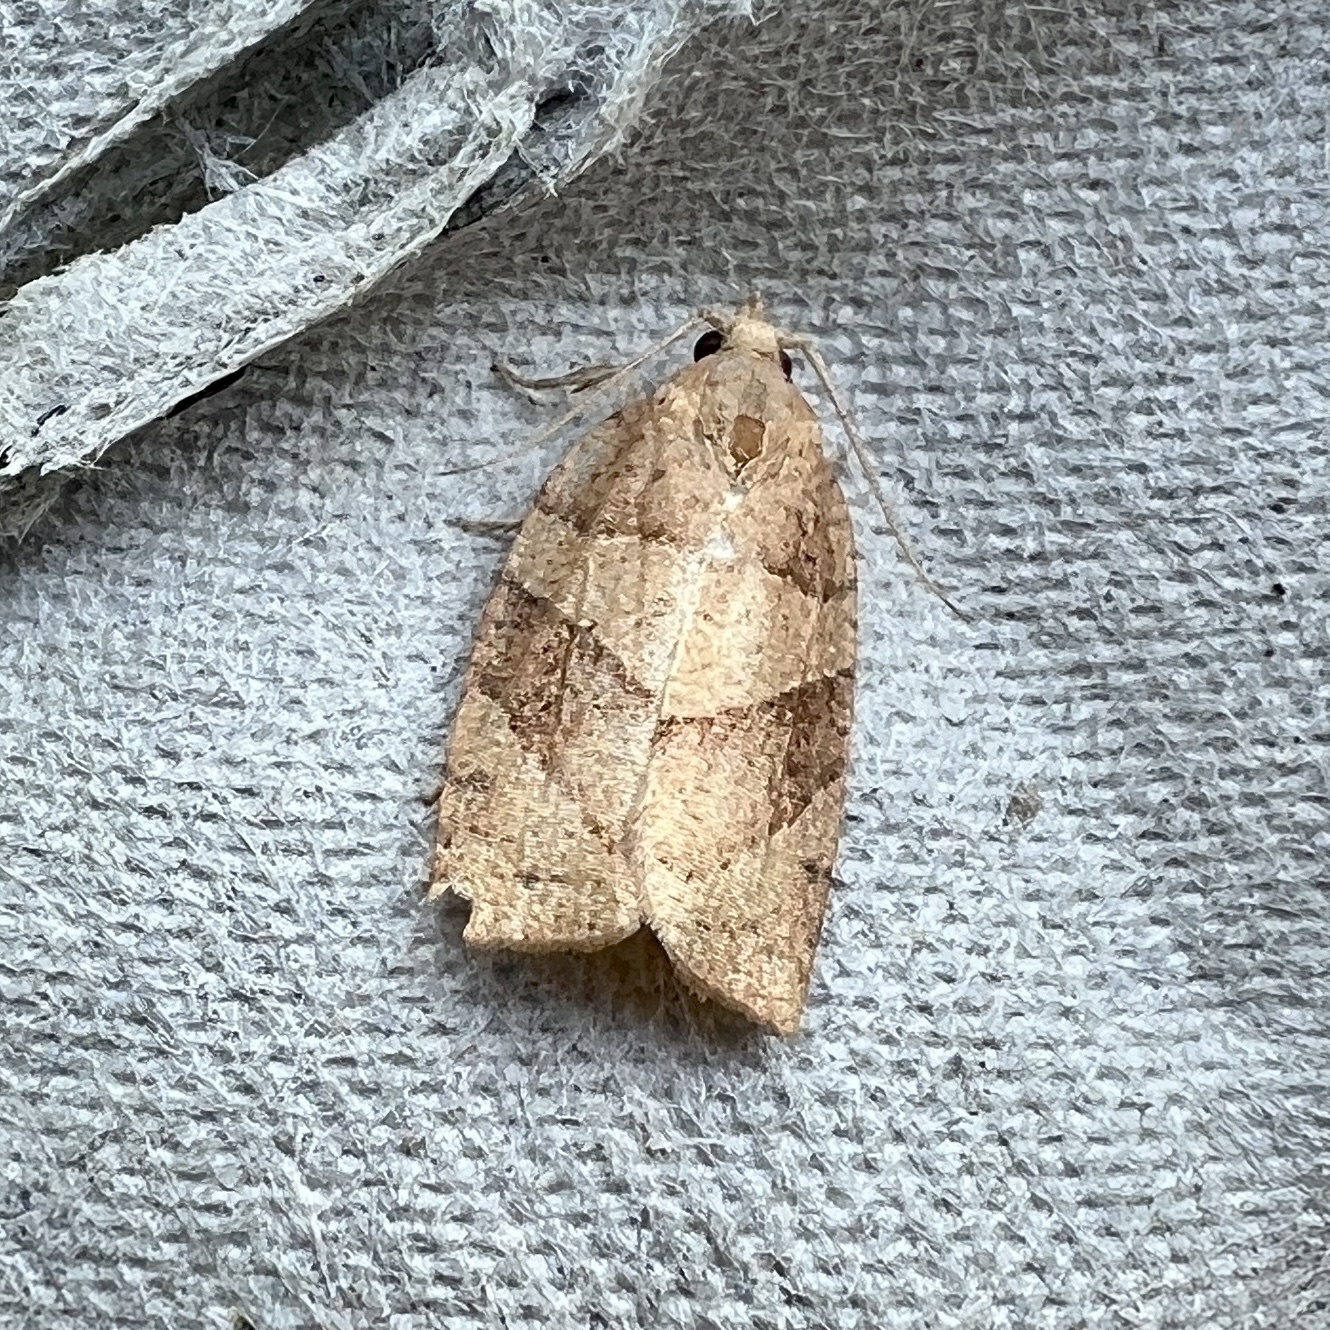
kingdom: Animalia
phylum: Arthropoda
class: Insecta
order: Lepidoptera
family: Tortricidae
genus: Pandemis
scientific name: Pandemis lamprosana
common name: Woodgrain leafroller moth
